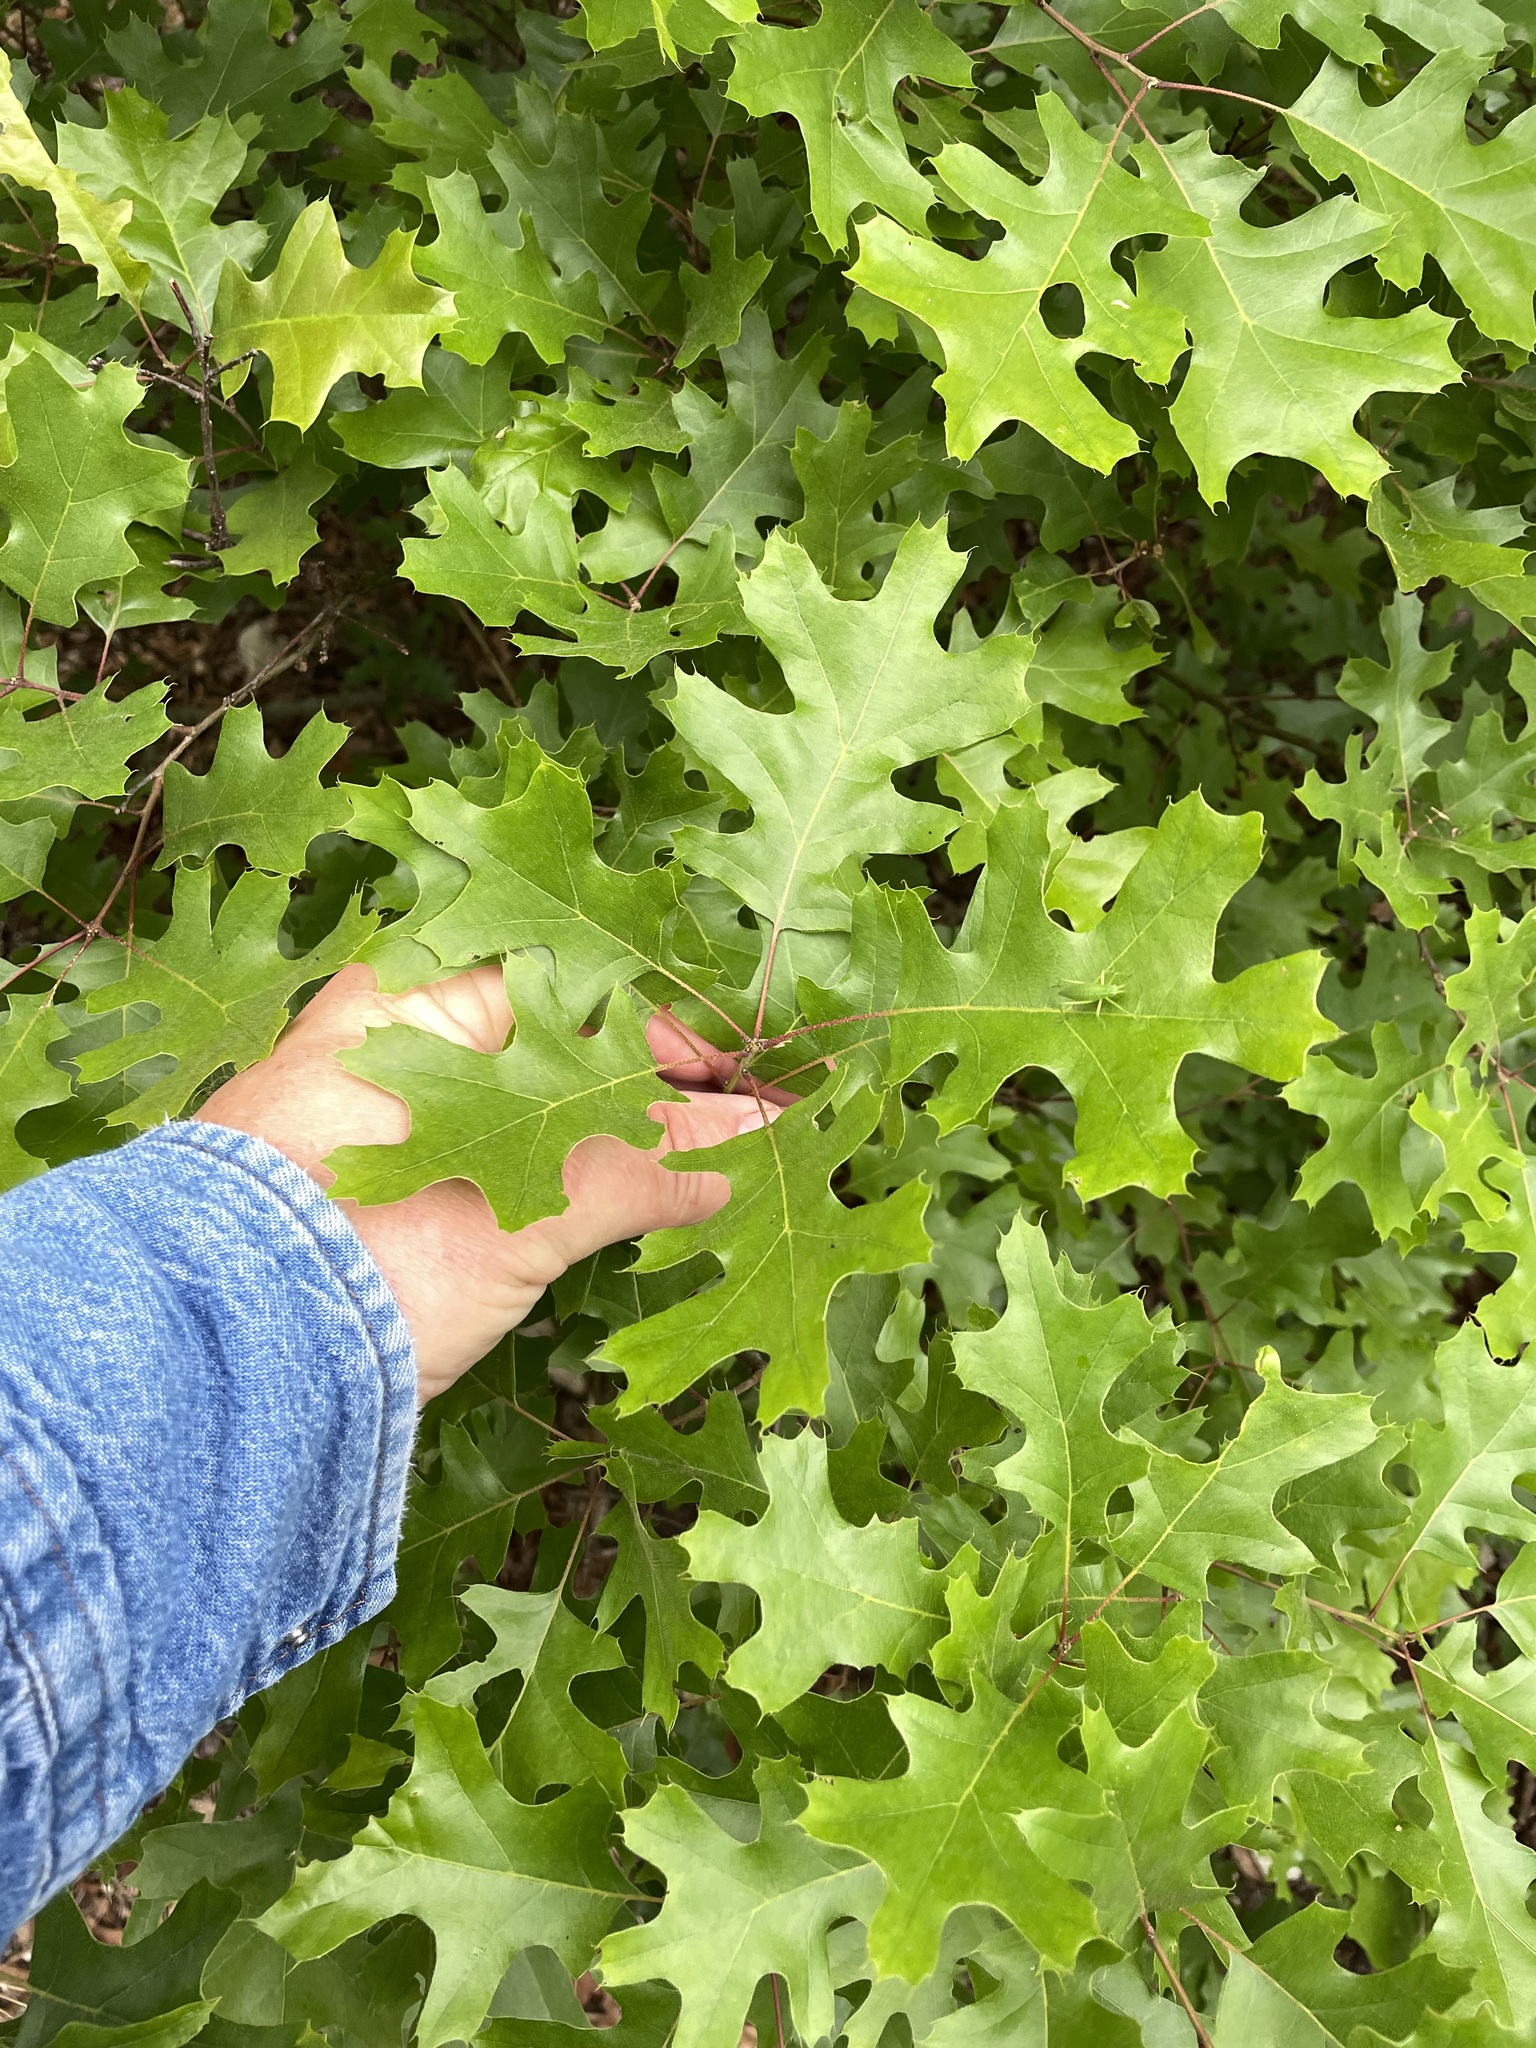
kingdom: Plantae
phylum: Tracheophyta
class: Magnoliopsida
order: Fagales
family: Fagaceae
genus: Quercus
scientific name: Quercus buckleyi
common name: Buckley oak
